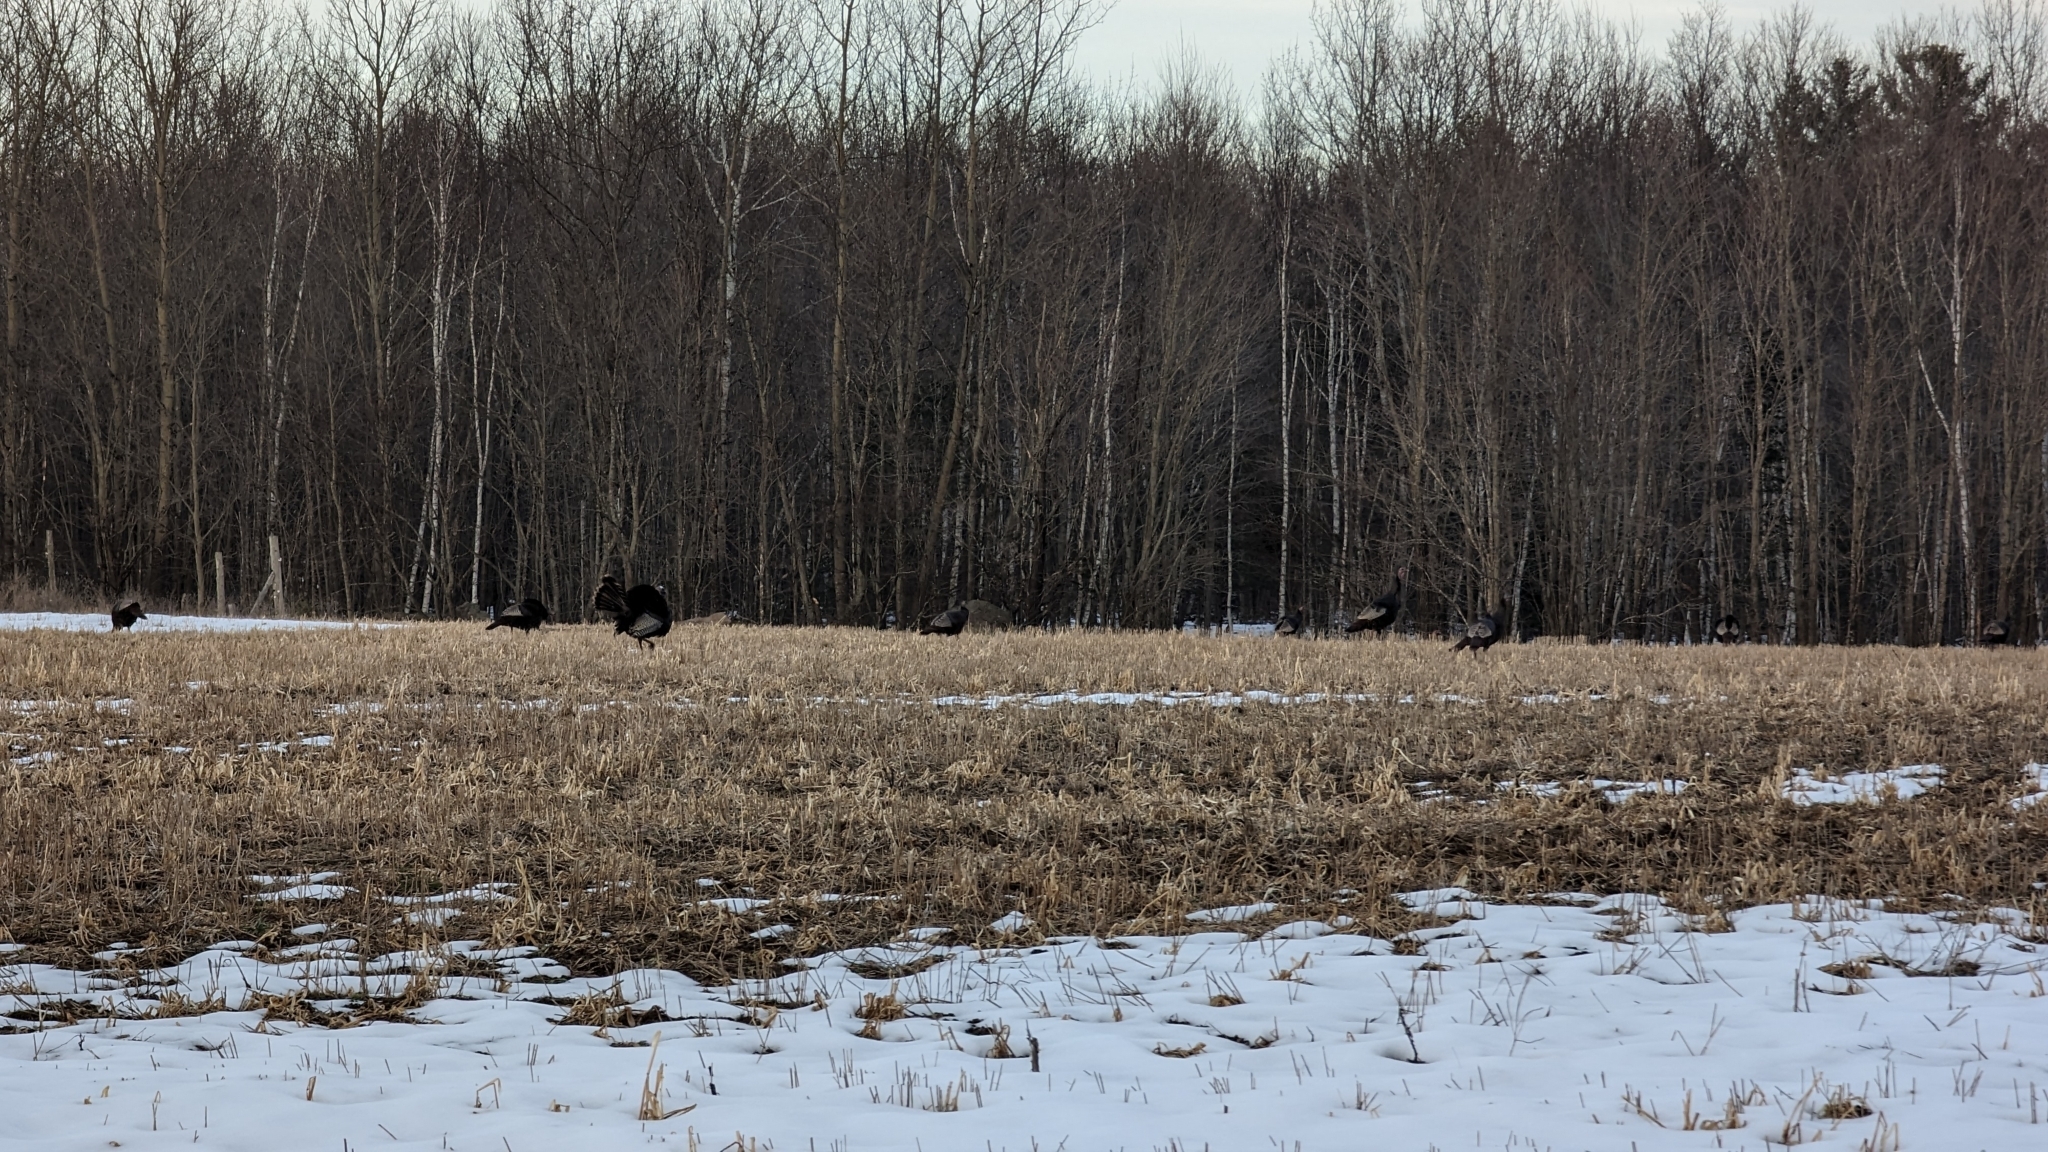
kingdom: Animalia
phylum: Chordata
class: Aves
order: Galliformes
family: Phasianidae
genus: Meleagris
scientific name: Meleagris gallopavo
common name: Wild turkey
